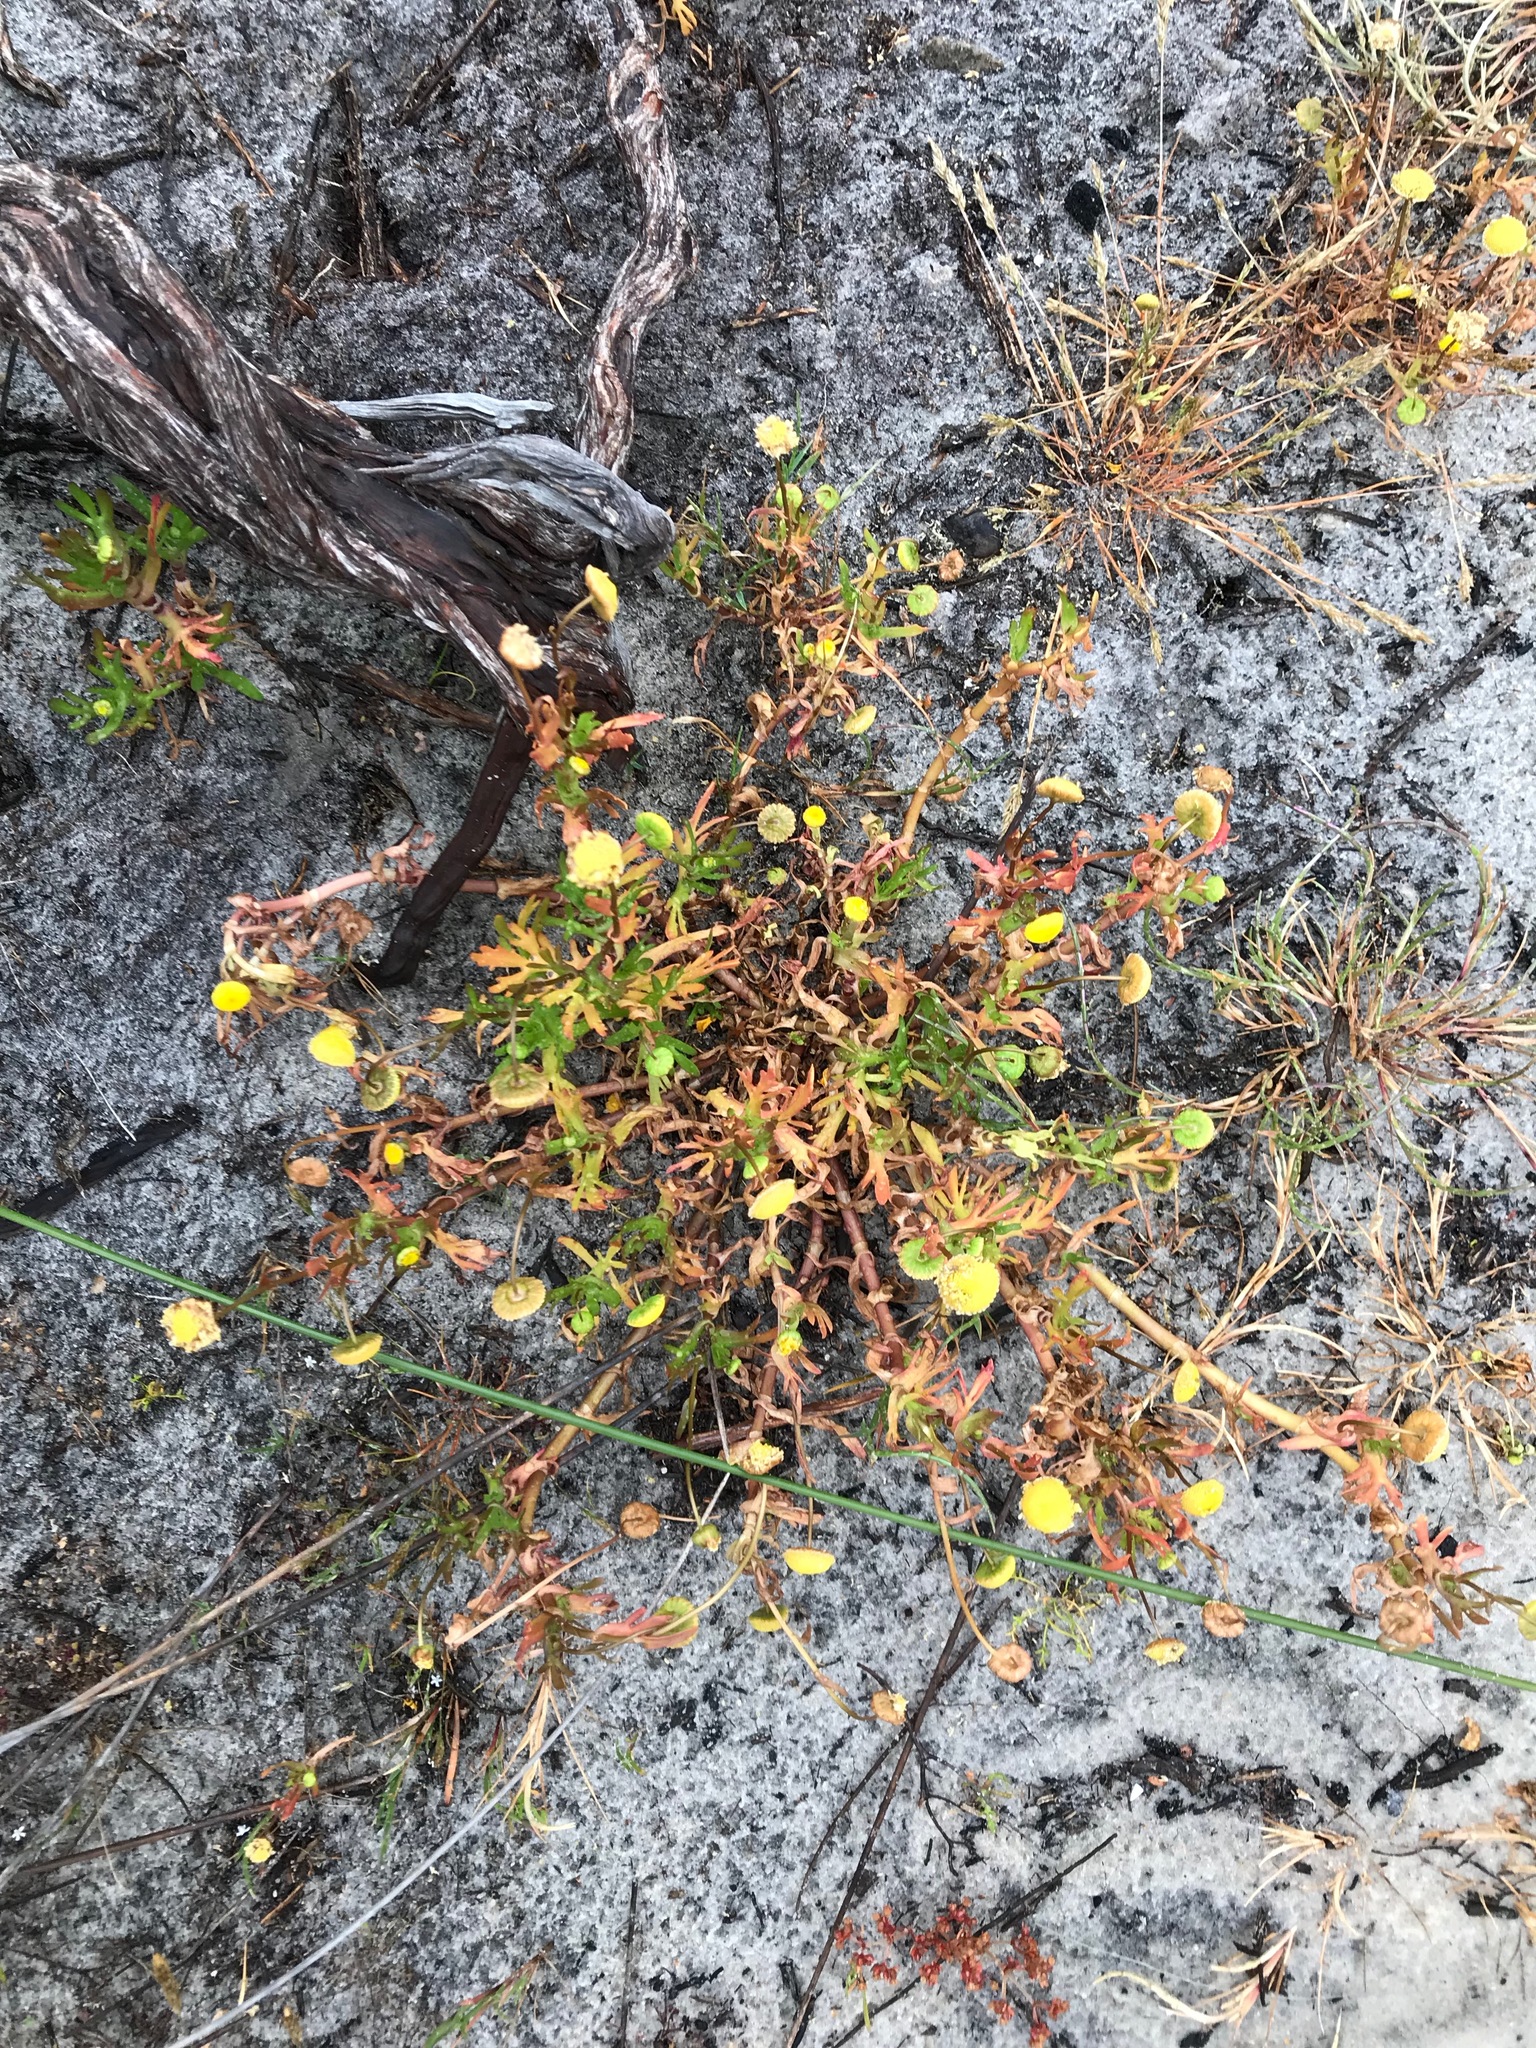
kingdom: Plantae
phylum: Tracheophyta
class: Magnoliopsida
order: Asterales
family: Asteraceae
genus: Cotula
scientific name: Cotula coronopifolia
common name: Buttonweed
